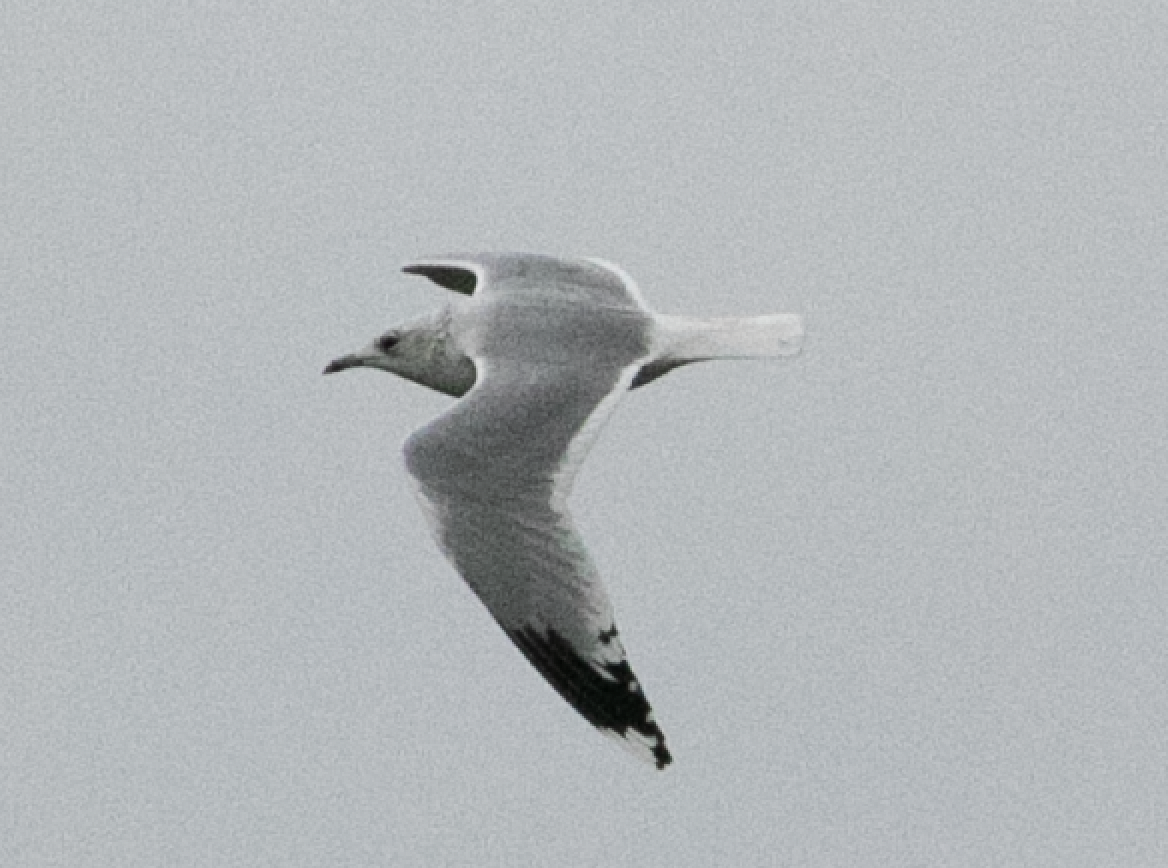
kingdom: Animalia
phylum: Chordata
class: Aves
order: Charadriiformes
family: Laridae
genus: Larus
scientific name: Larus canus
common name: Mew gull
